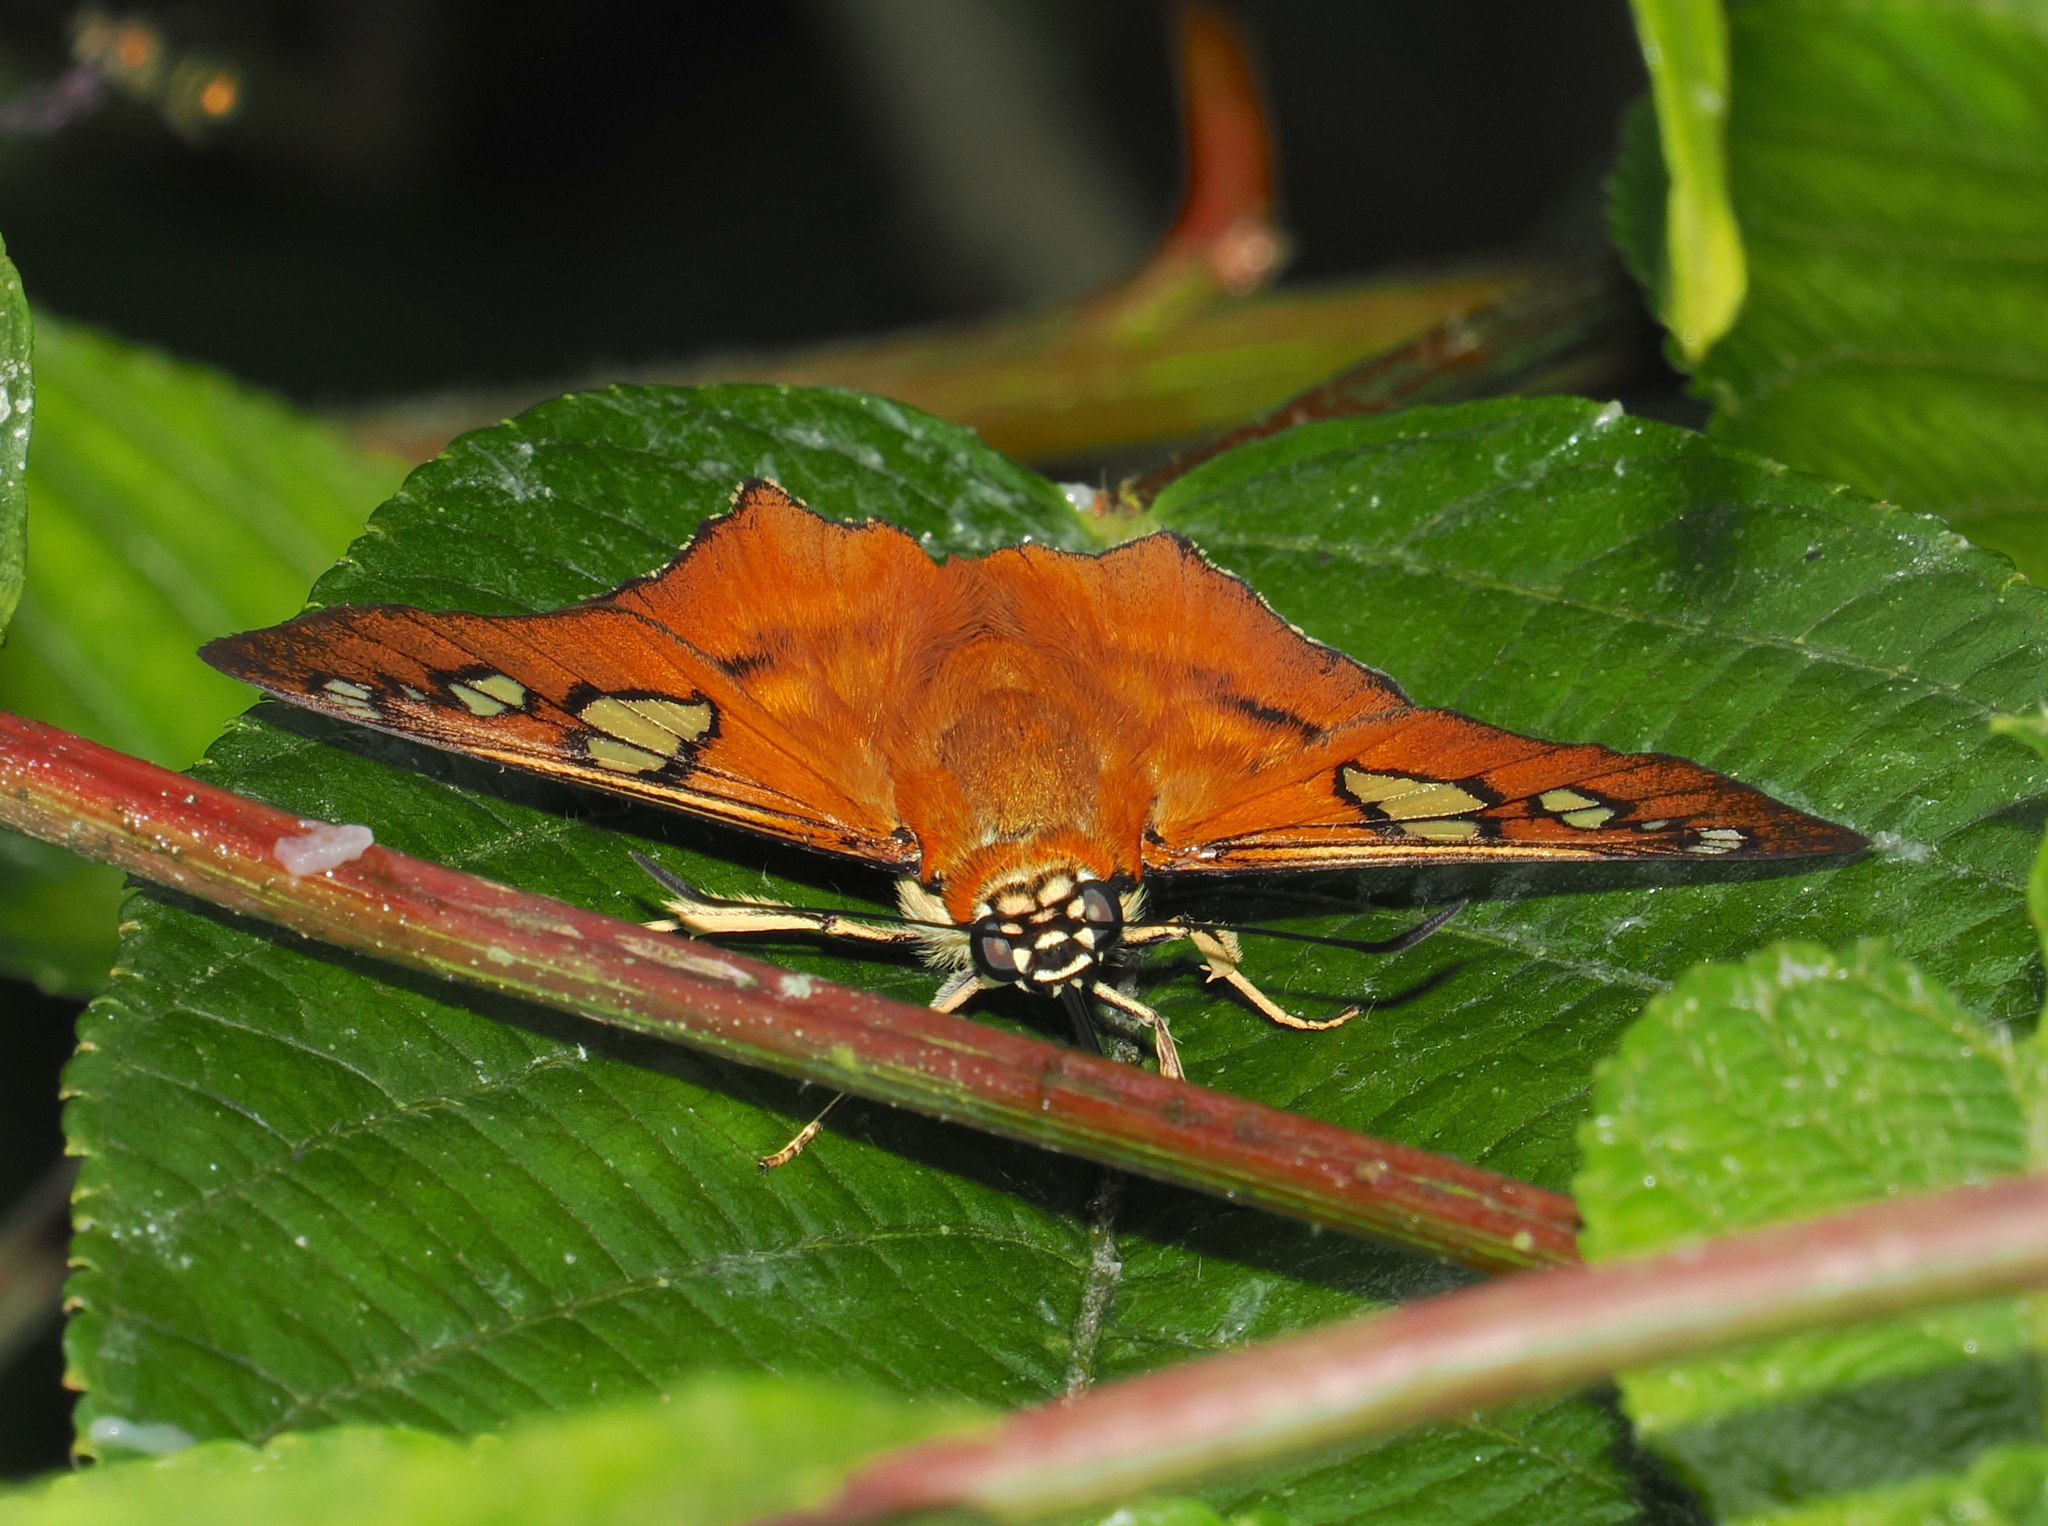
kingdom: Animalia
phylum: Arthropoda
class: Insecta
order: Lepidoptera
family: Hesperiidae
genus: Myscelus
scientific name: Myscelus pegasus
